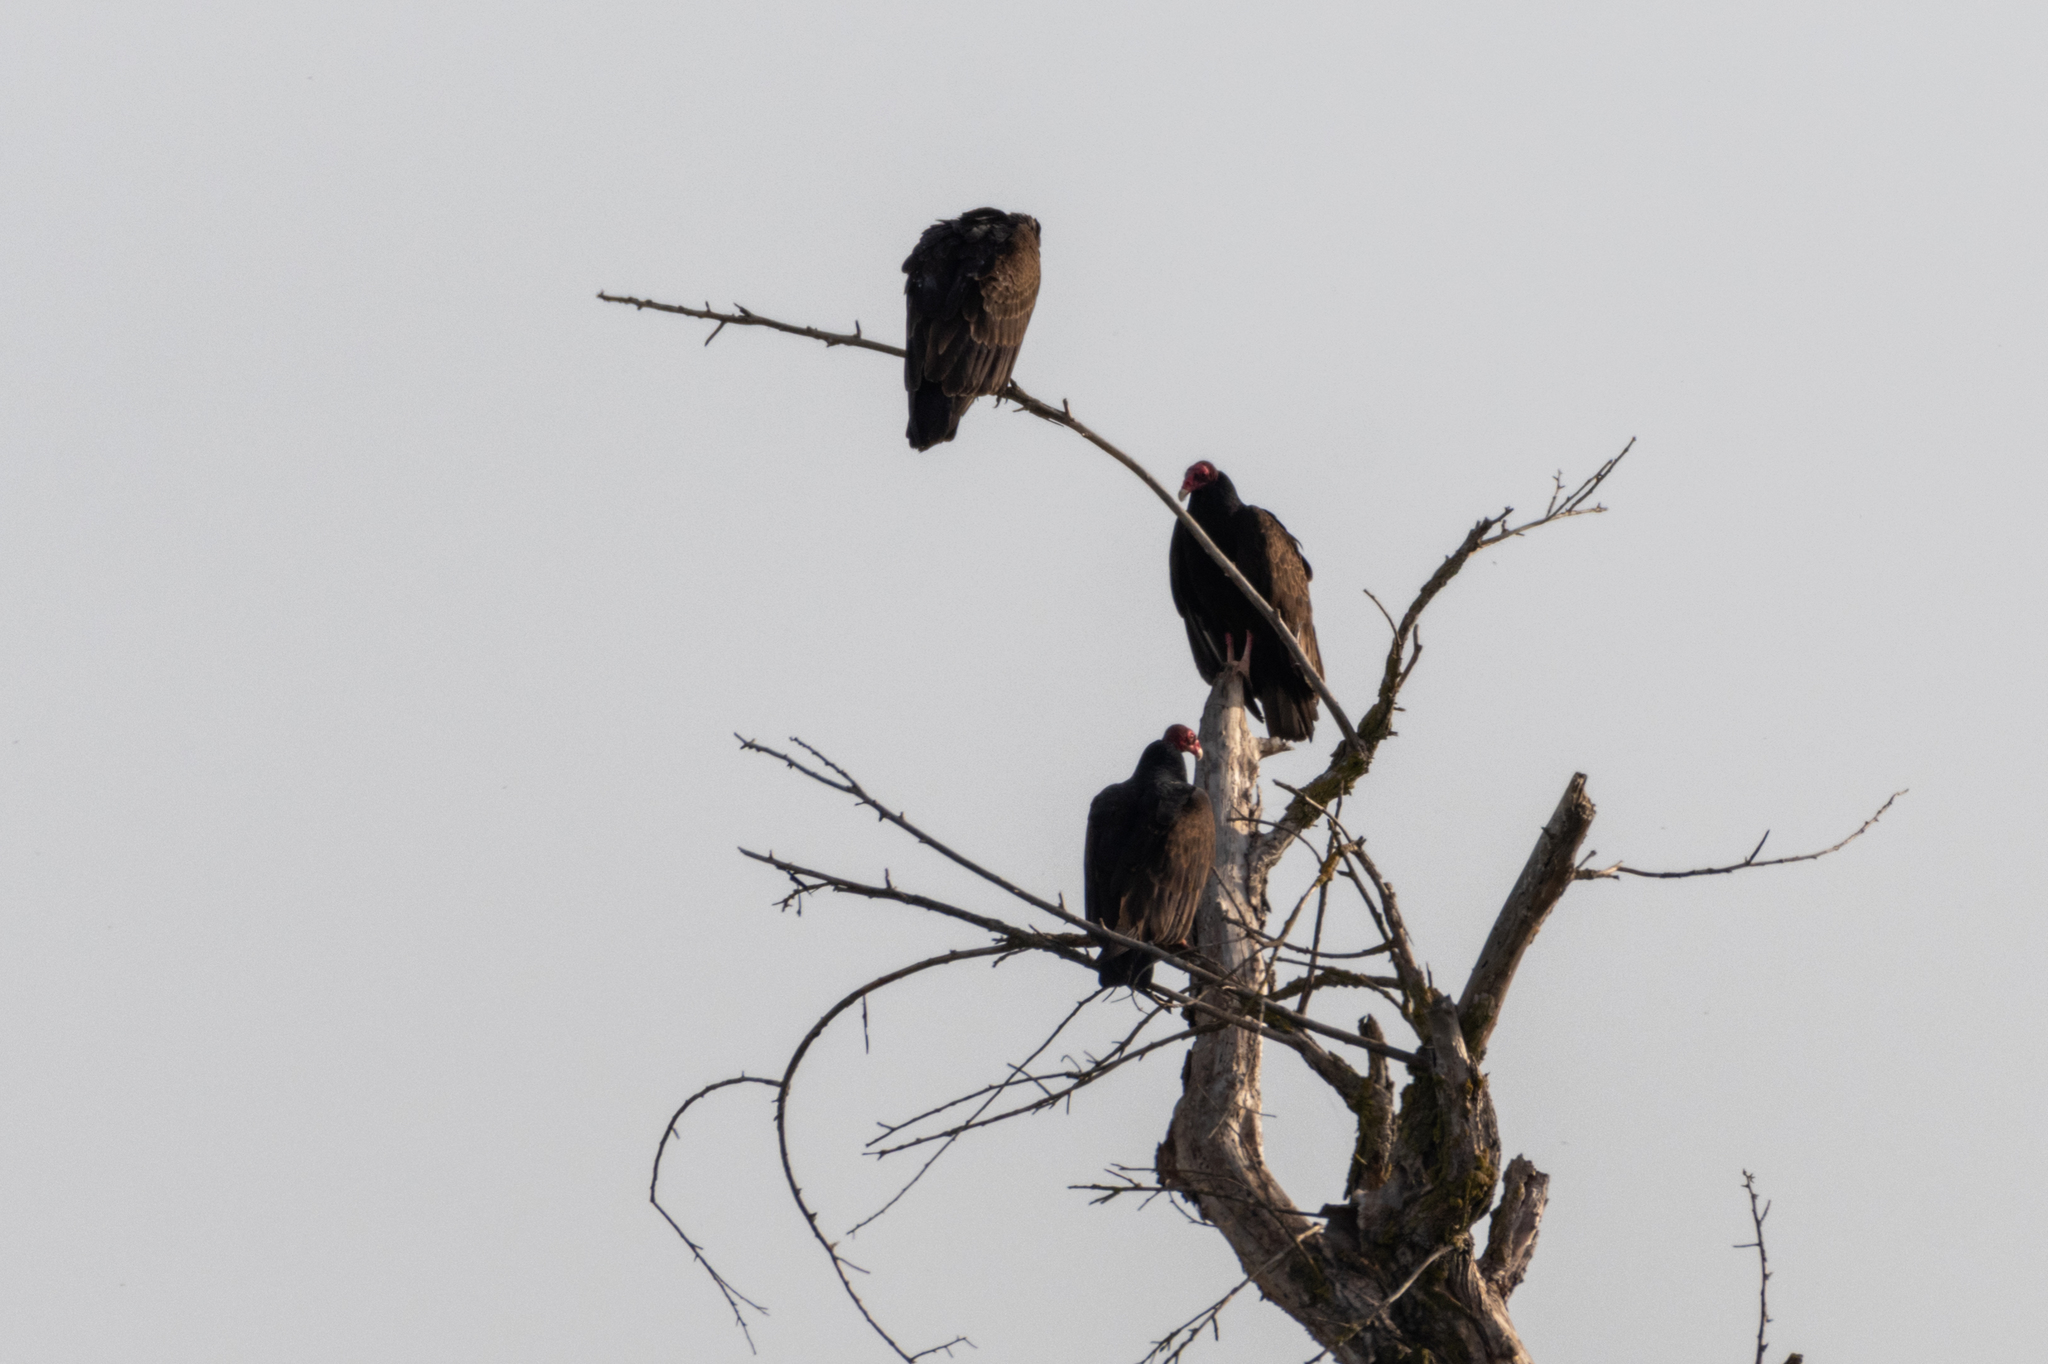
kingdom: Animalia
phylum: Chordata
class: Aves
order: Accipitriformes
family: Cathartidae
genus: Cathartes
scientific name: Cathartes aura
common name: Turkey vulture
